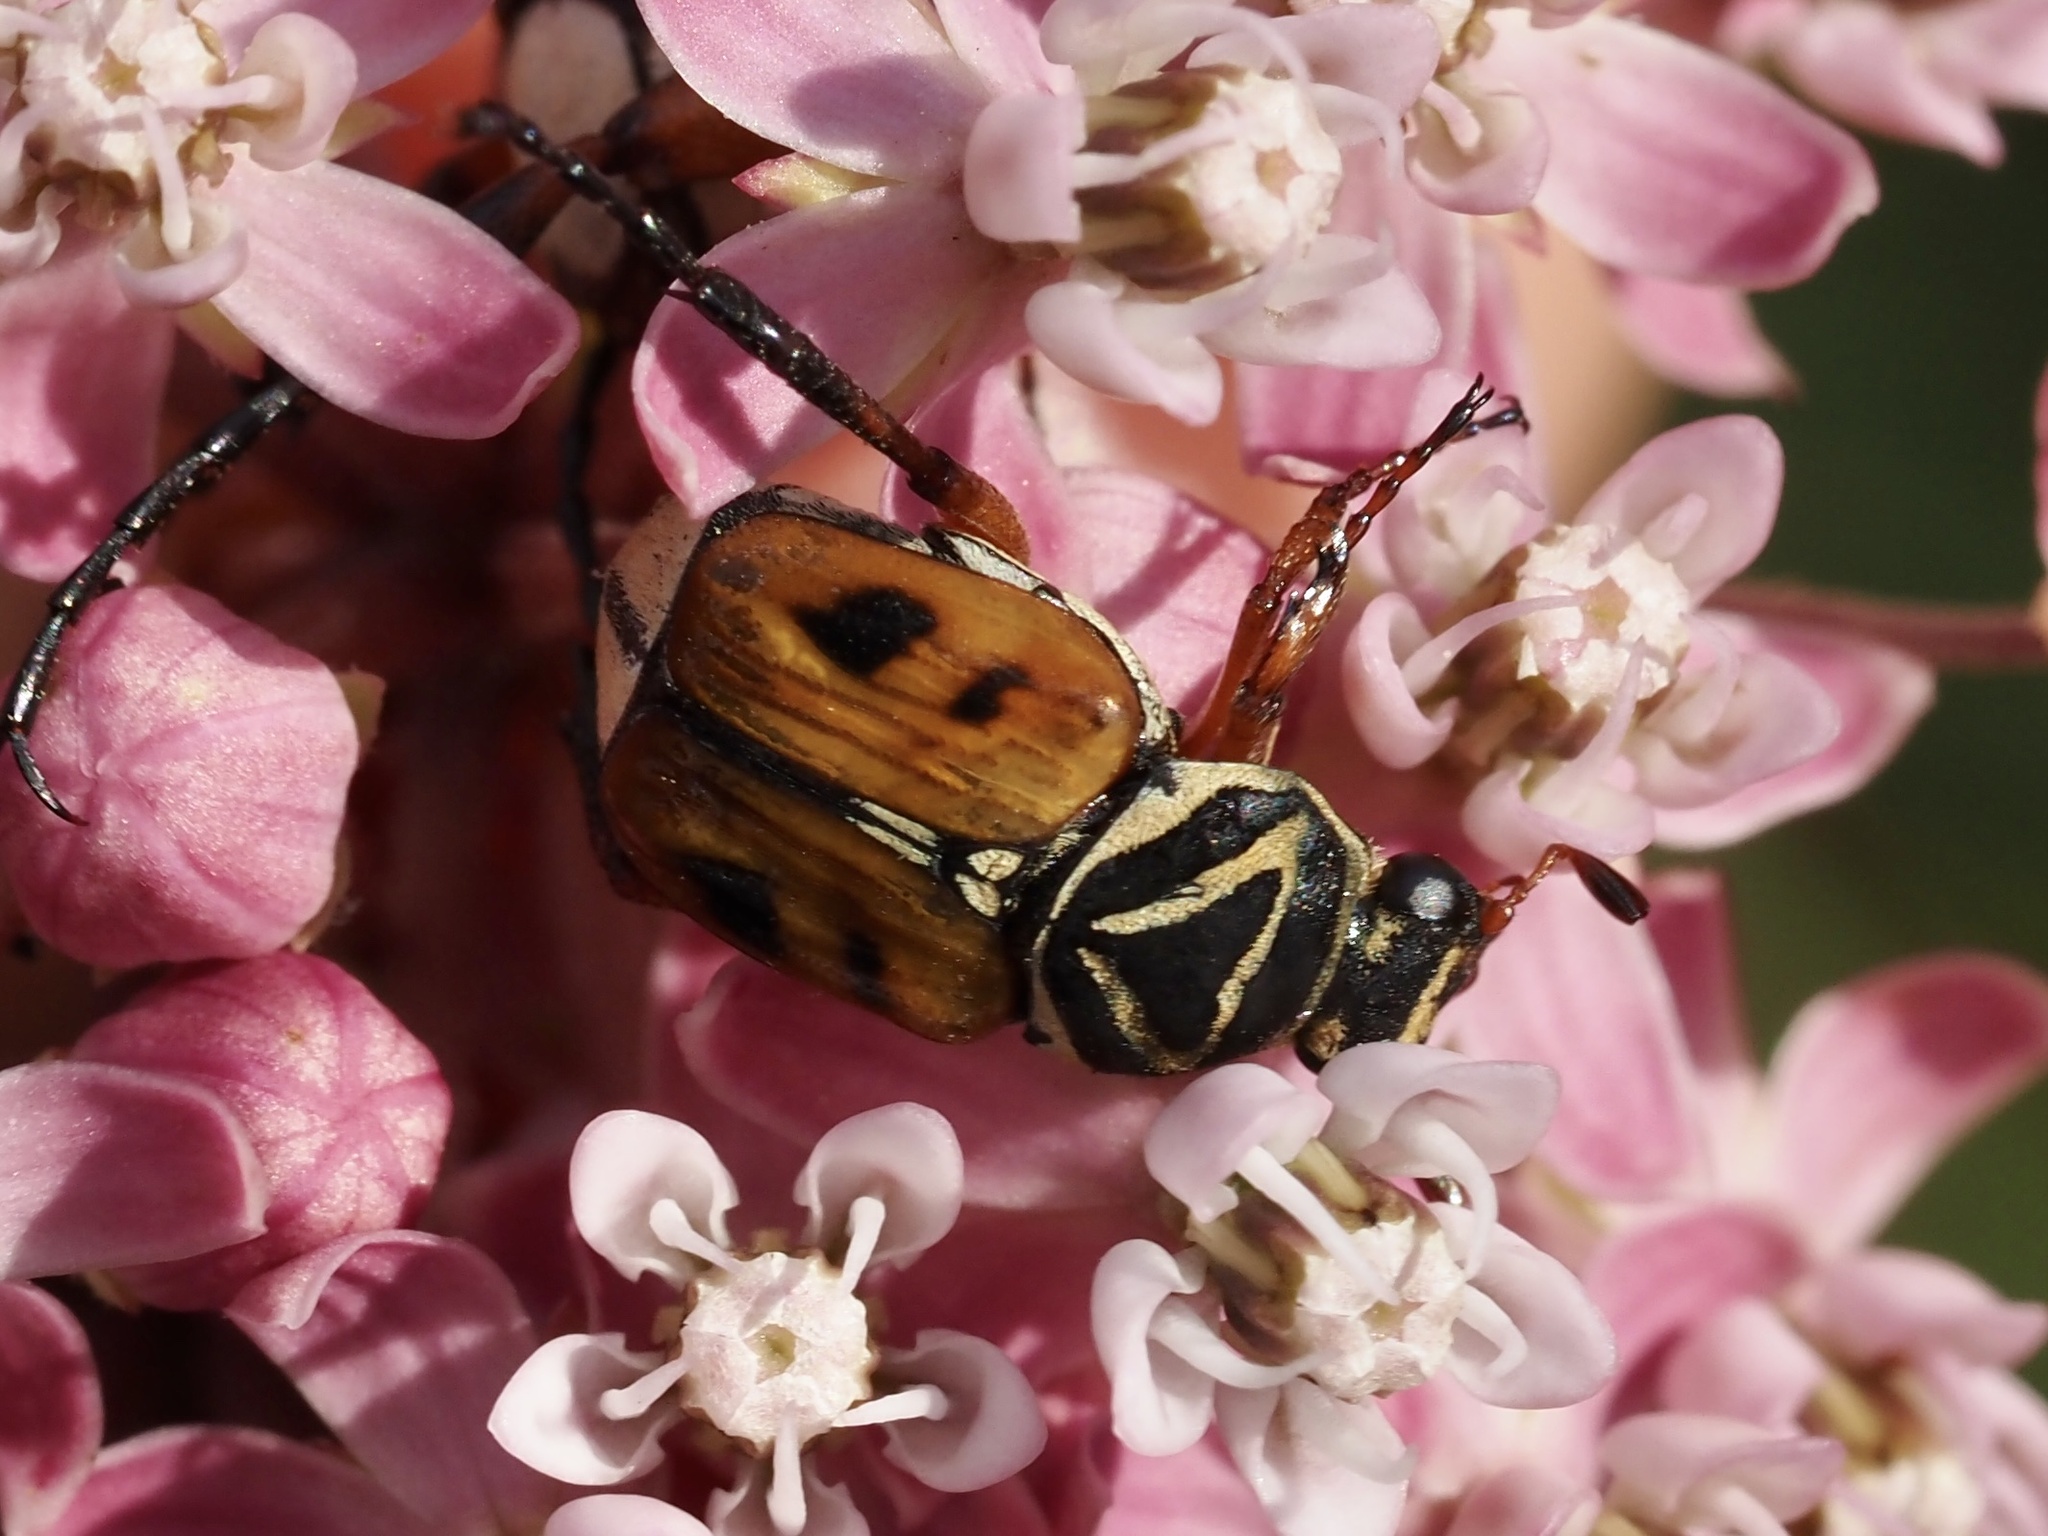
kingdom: Animalia
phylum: Arthropoda
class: Insecta
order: Coleoptera
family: Scarabaeidae
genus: Trigonopeltastes
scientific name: Trigonopeltastes delta
